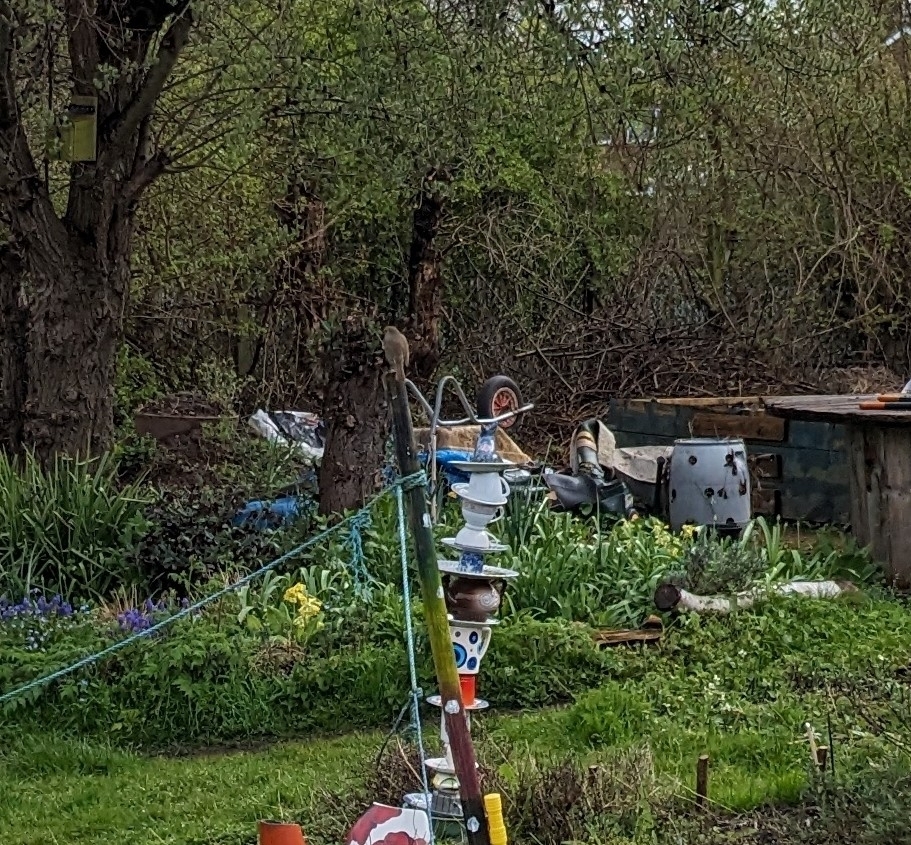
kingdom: Animalia
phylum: Chordata
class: Aves
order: Passeriformes
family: Muscicapidae
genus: Erithacus
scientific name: Erithacus rubecula
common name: European robin
